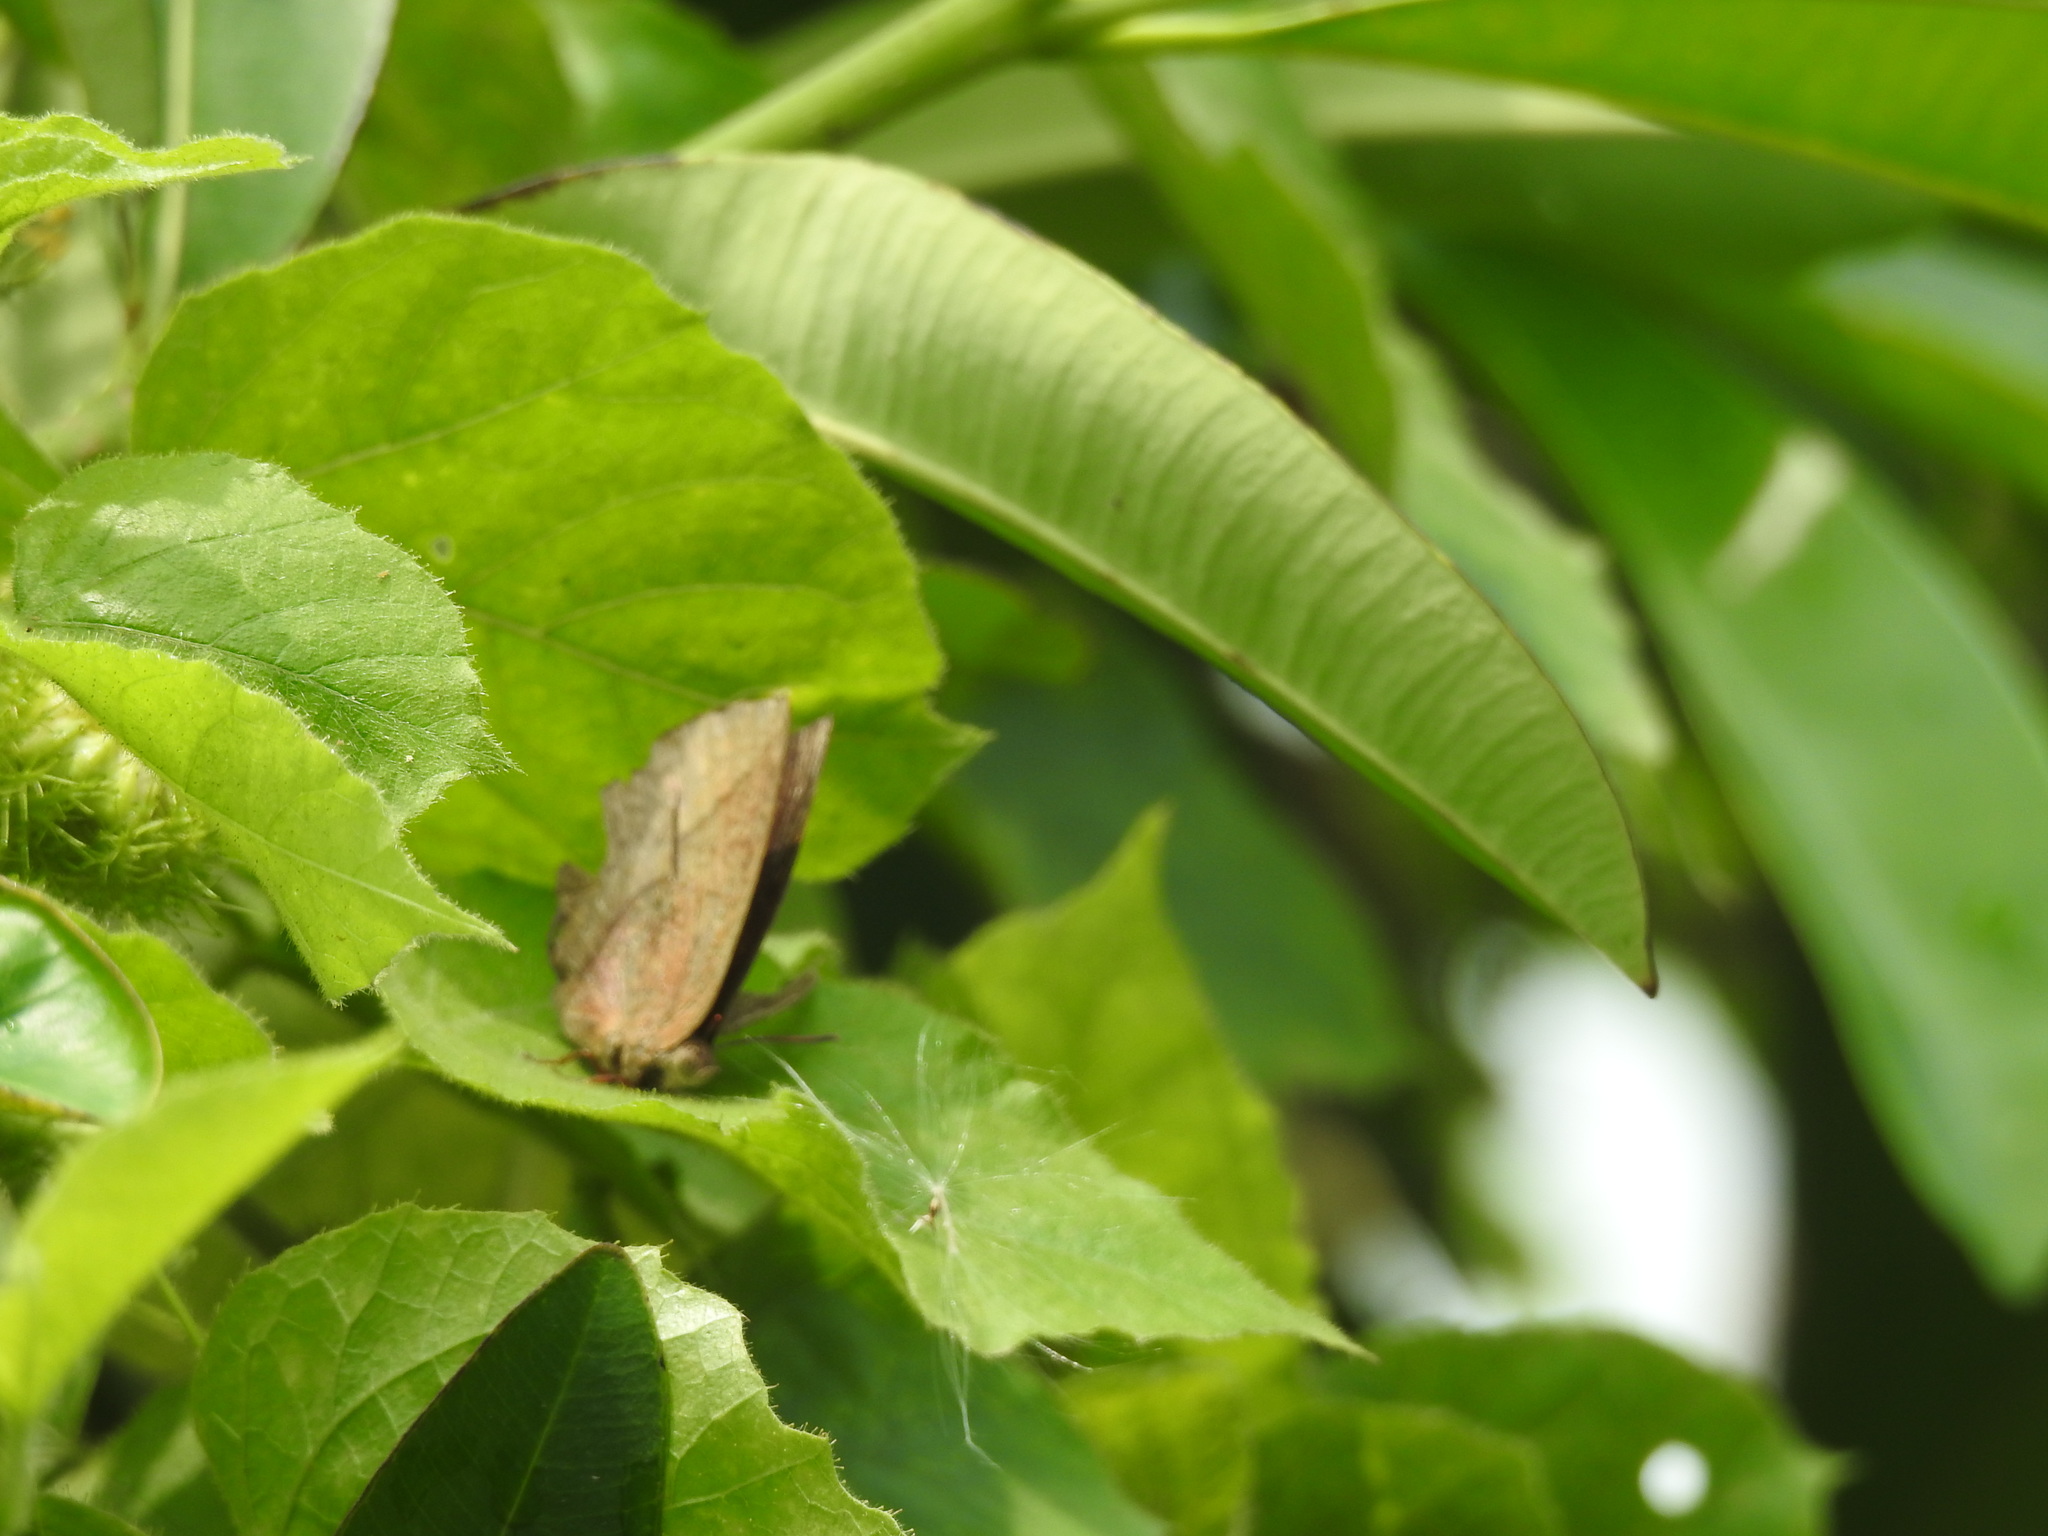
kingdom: Animalia
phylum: Arthropoda
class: Insecta
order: Lepidoptera
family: Lycaenidae
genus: Amblypodia
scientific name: Amblypodia anita
